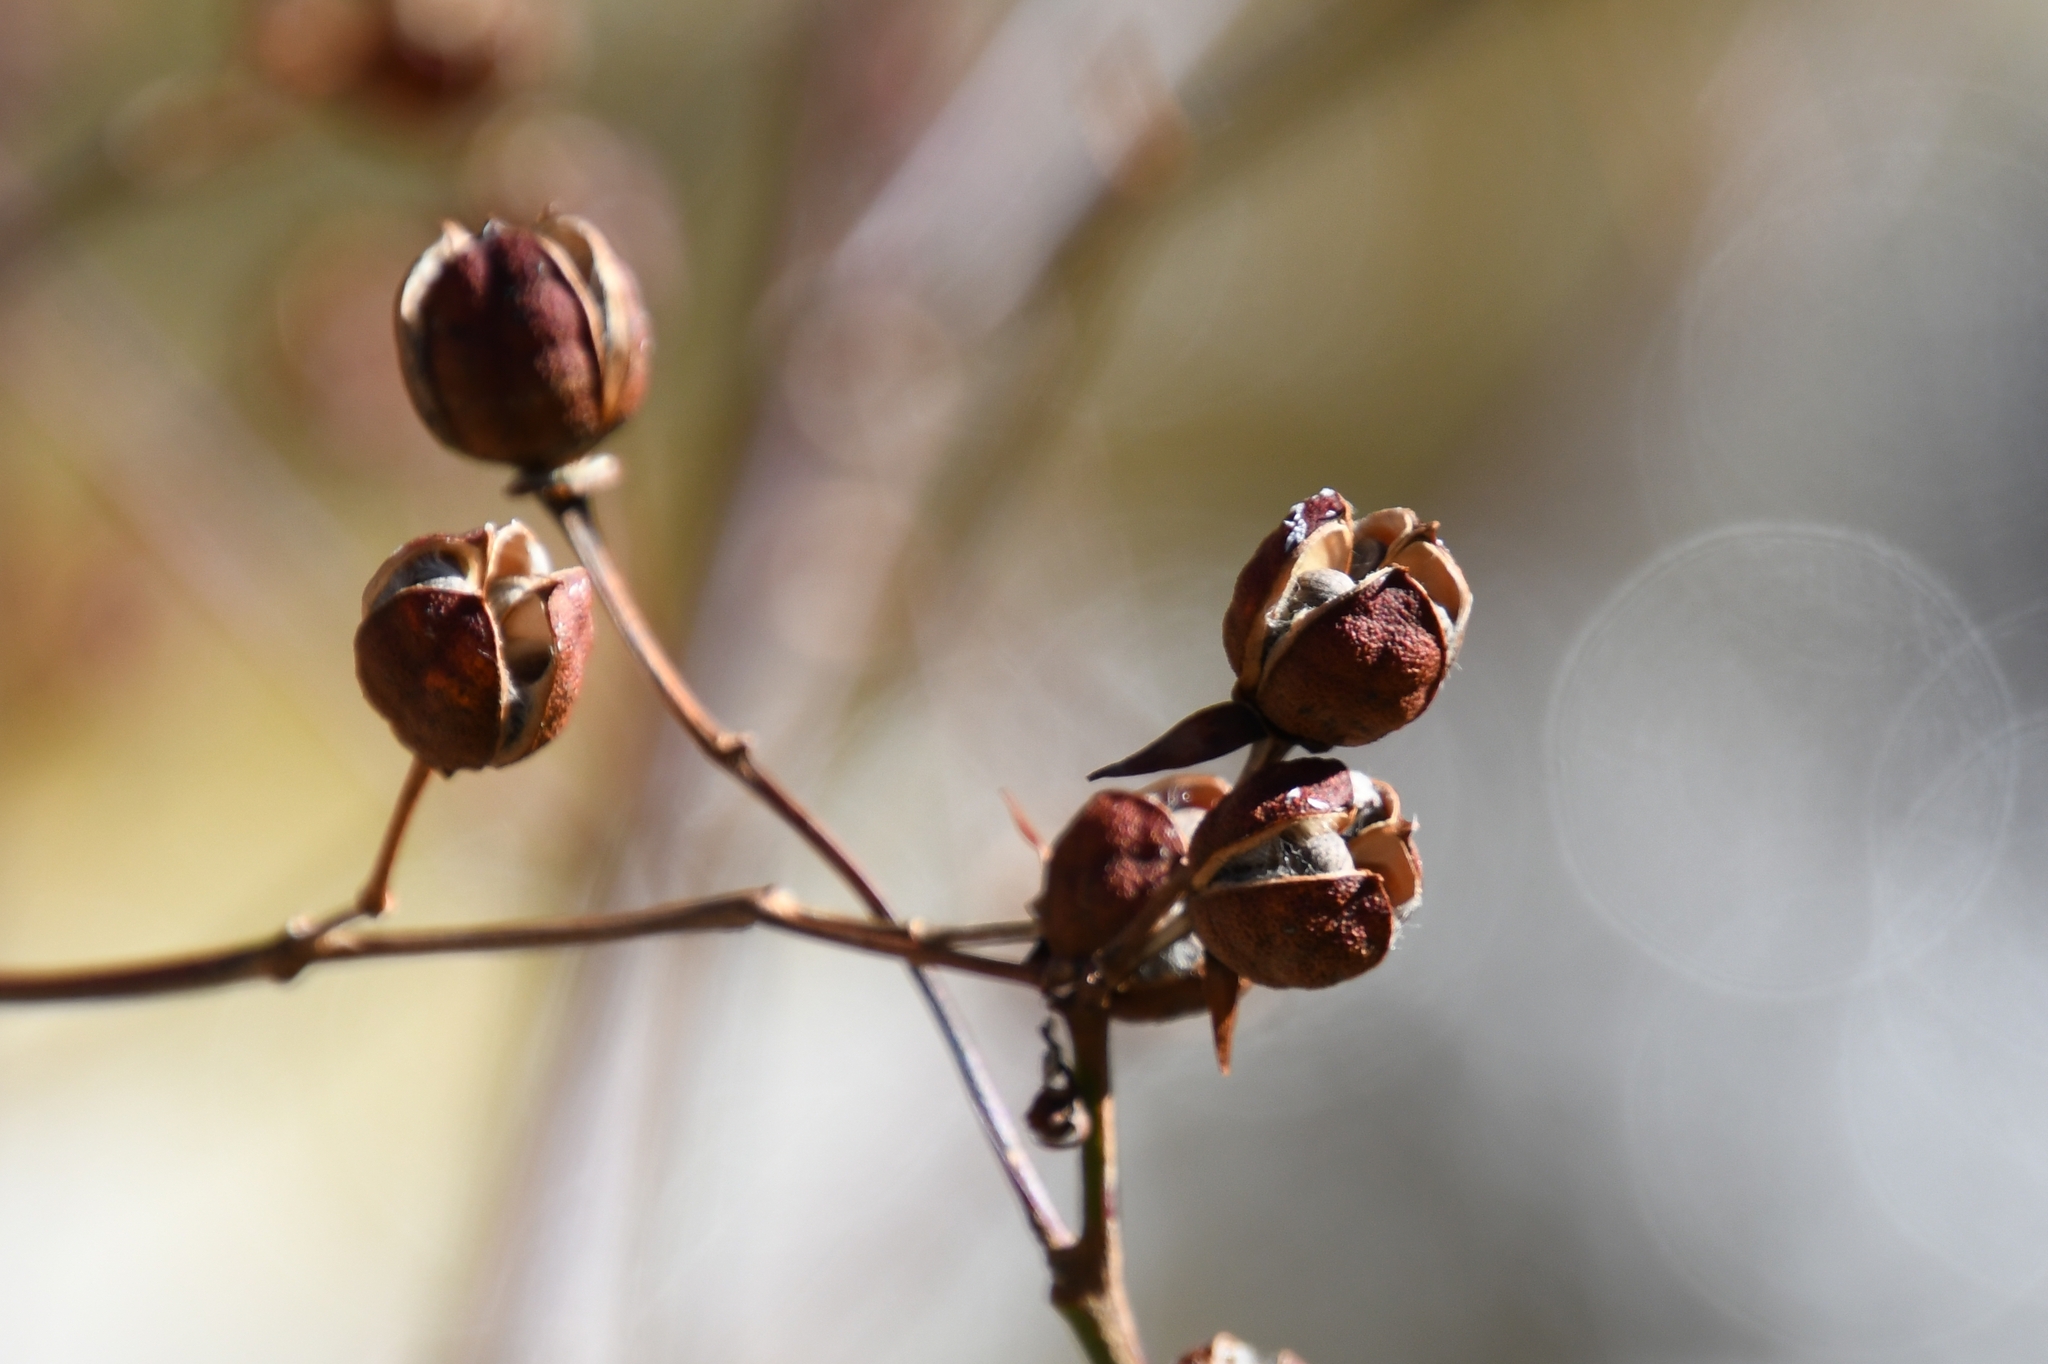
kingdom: Plantae
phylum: Tracheophyta
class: Magnoliopsida
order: Malvales
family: Malvaceae
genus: Gossypium
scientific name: Gossypium thurberi
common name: Desert cotton
